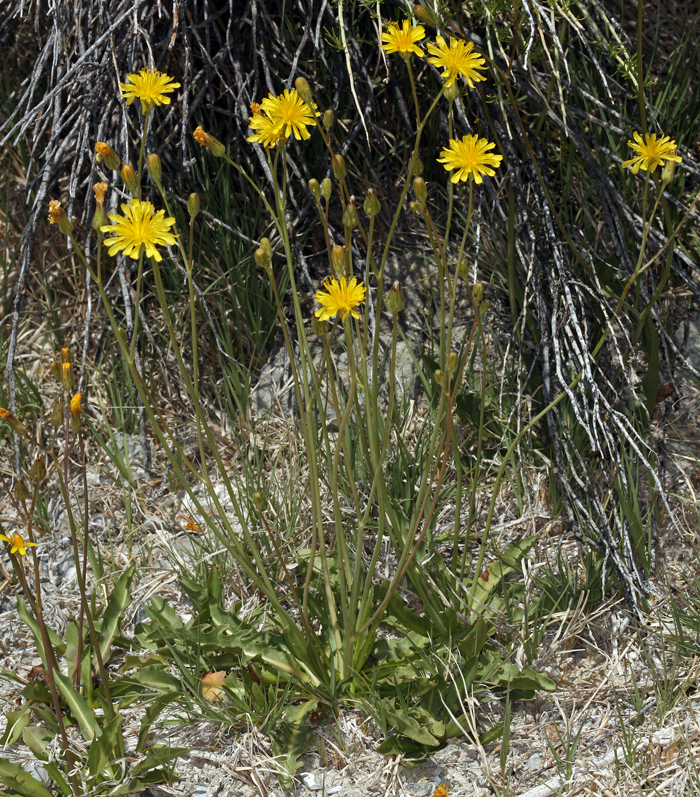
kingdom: Plantae
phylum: Tracheophyta
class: Magnoliopsida
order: Asterales
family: Asteraceae
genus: Crepis
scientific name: Crepis runcinata
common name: Dandelion hawksbeard
